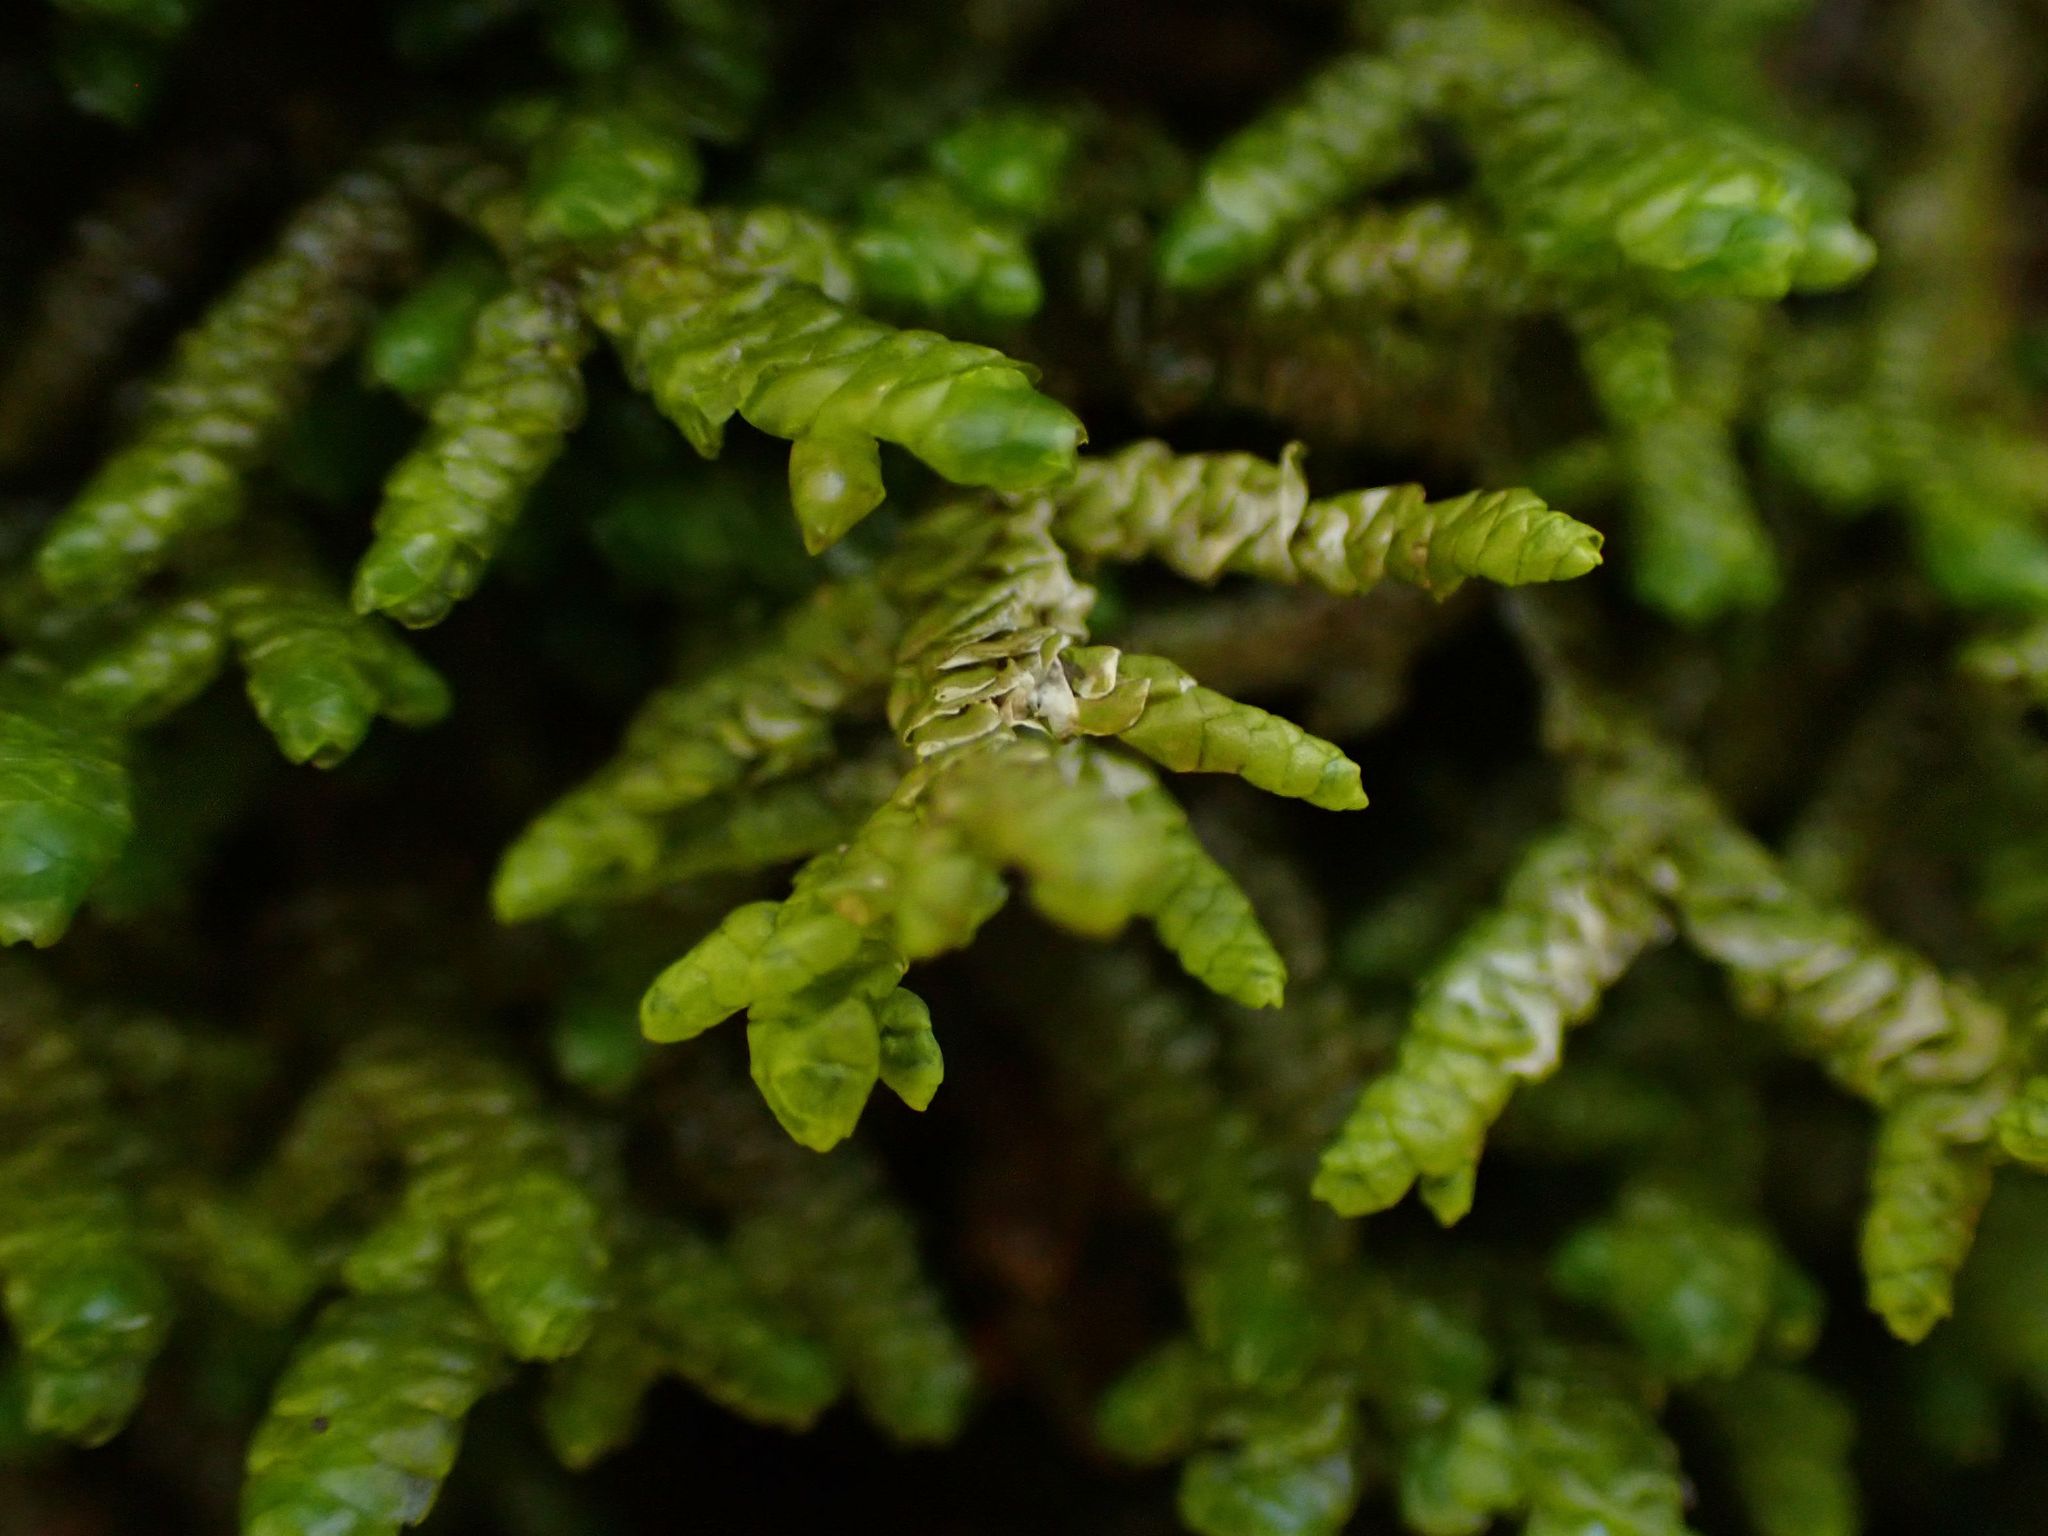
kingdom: Plantae
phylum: Marchantiophyta
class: Jungermanniopsida
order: Porellales
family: Porellaceae
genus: Porella
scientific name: Porella platyphylla
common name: Wall scalewort
